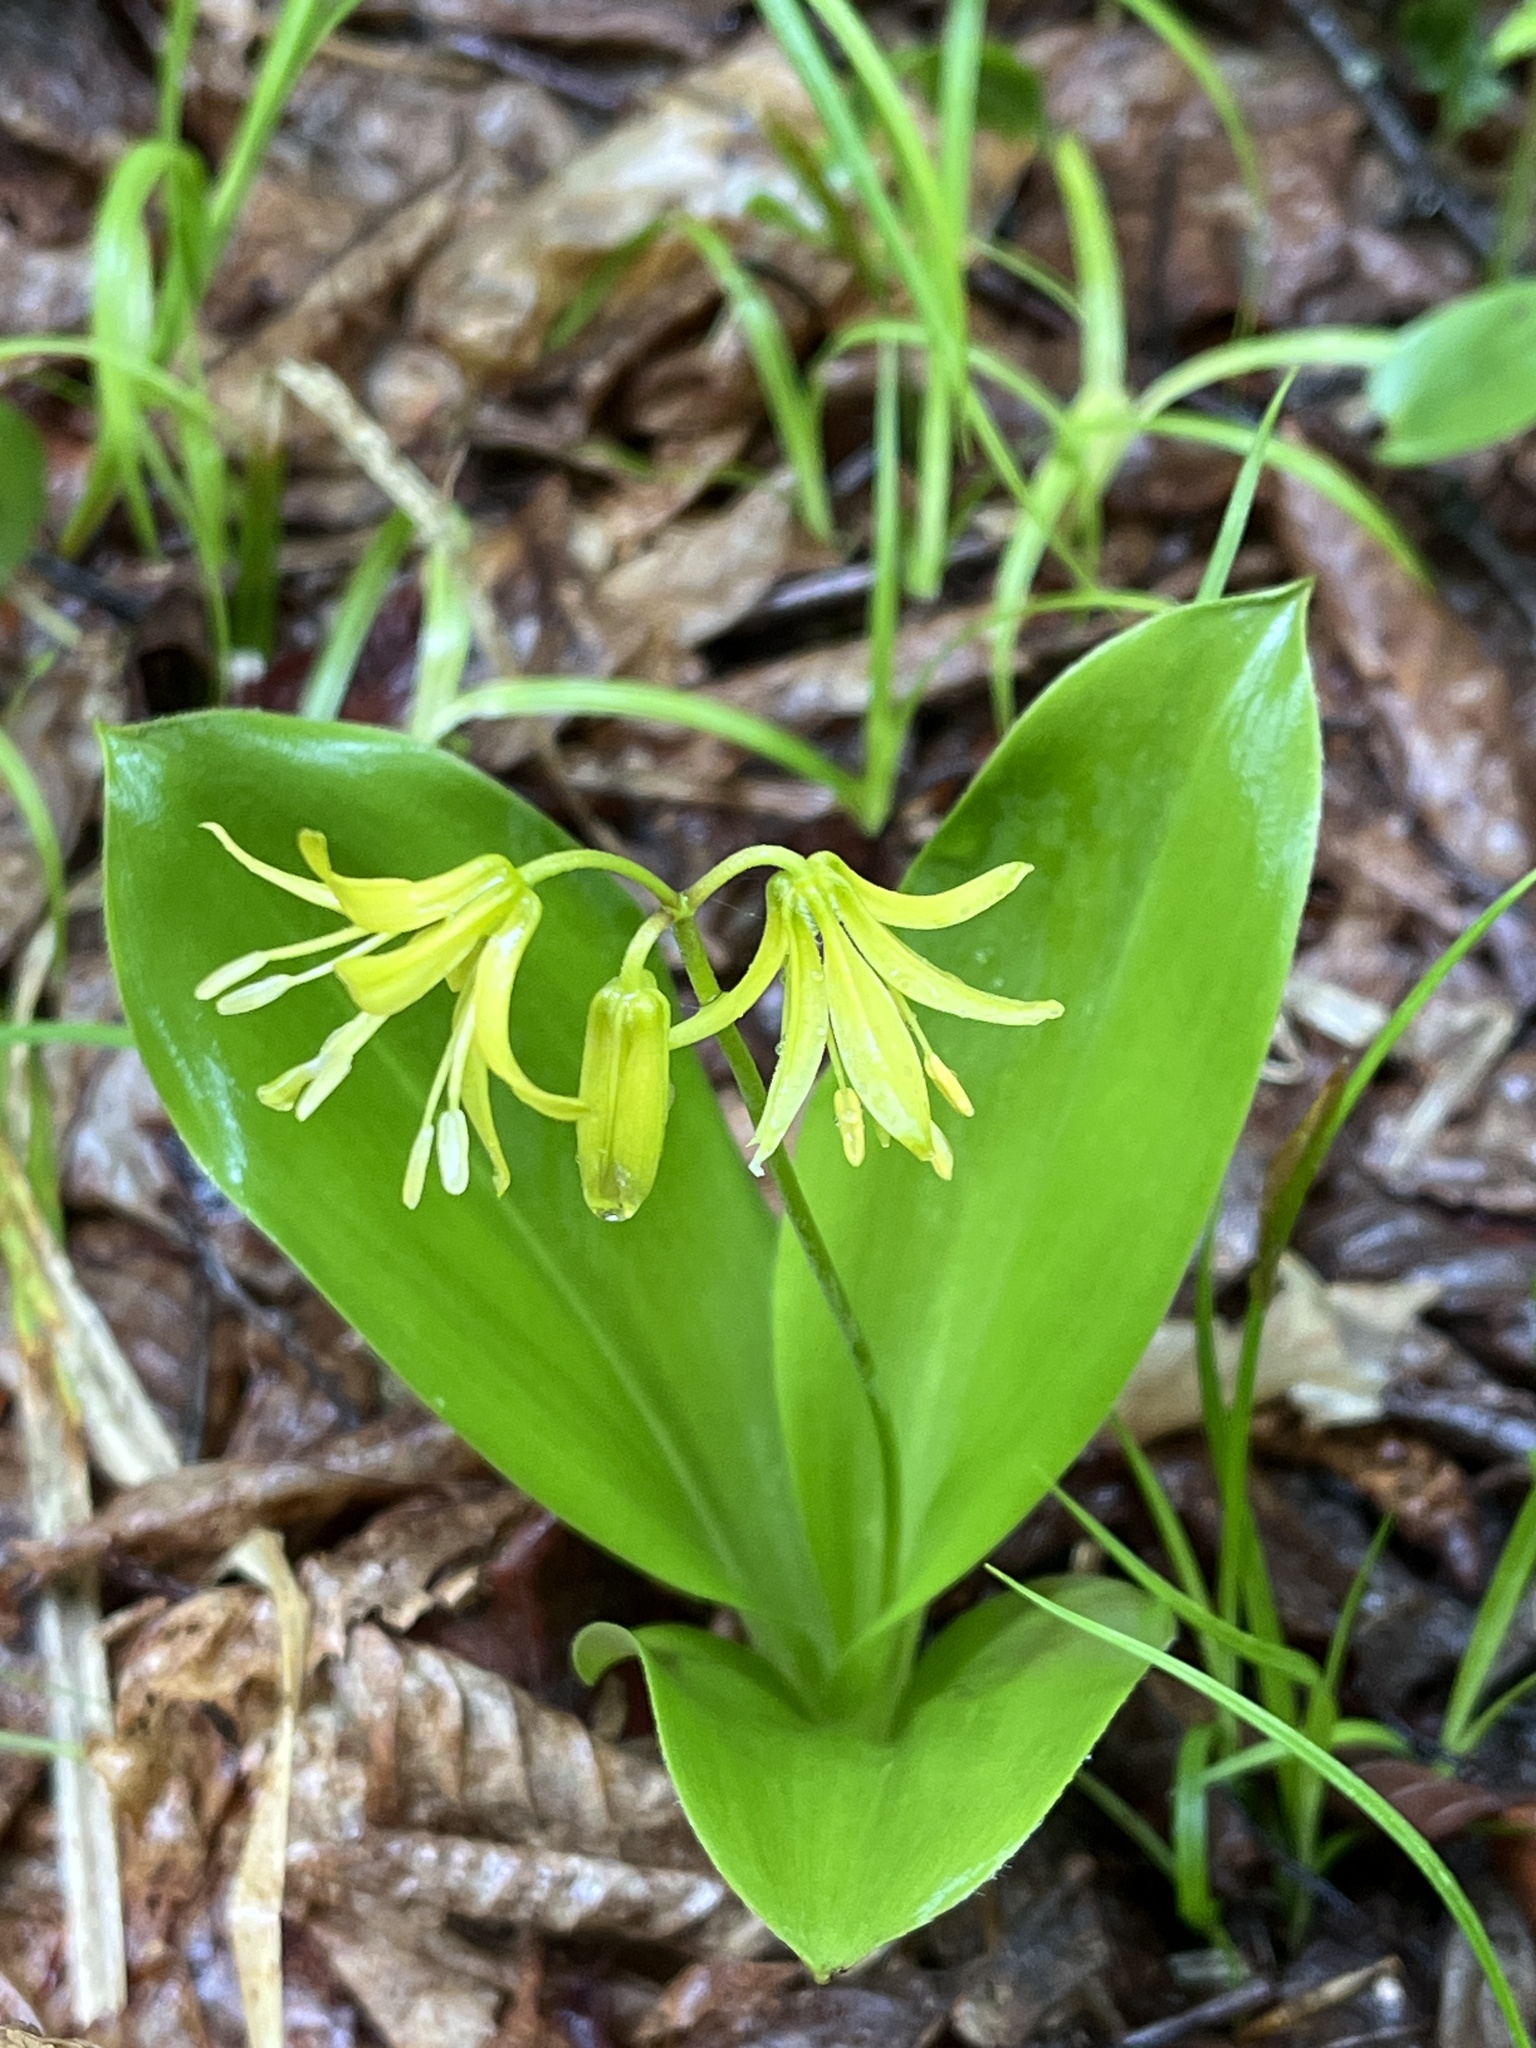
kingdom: Plantae
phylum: Tracheophyta
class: Liliopsida
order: Liliales
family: Liliaceae
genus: Clintonia
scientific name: Clintonia borealis
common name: Yellow clintonia
